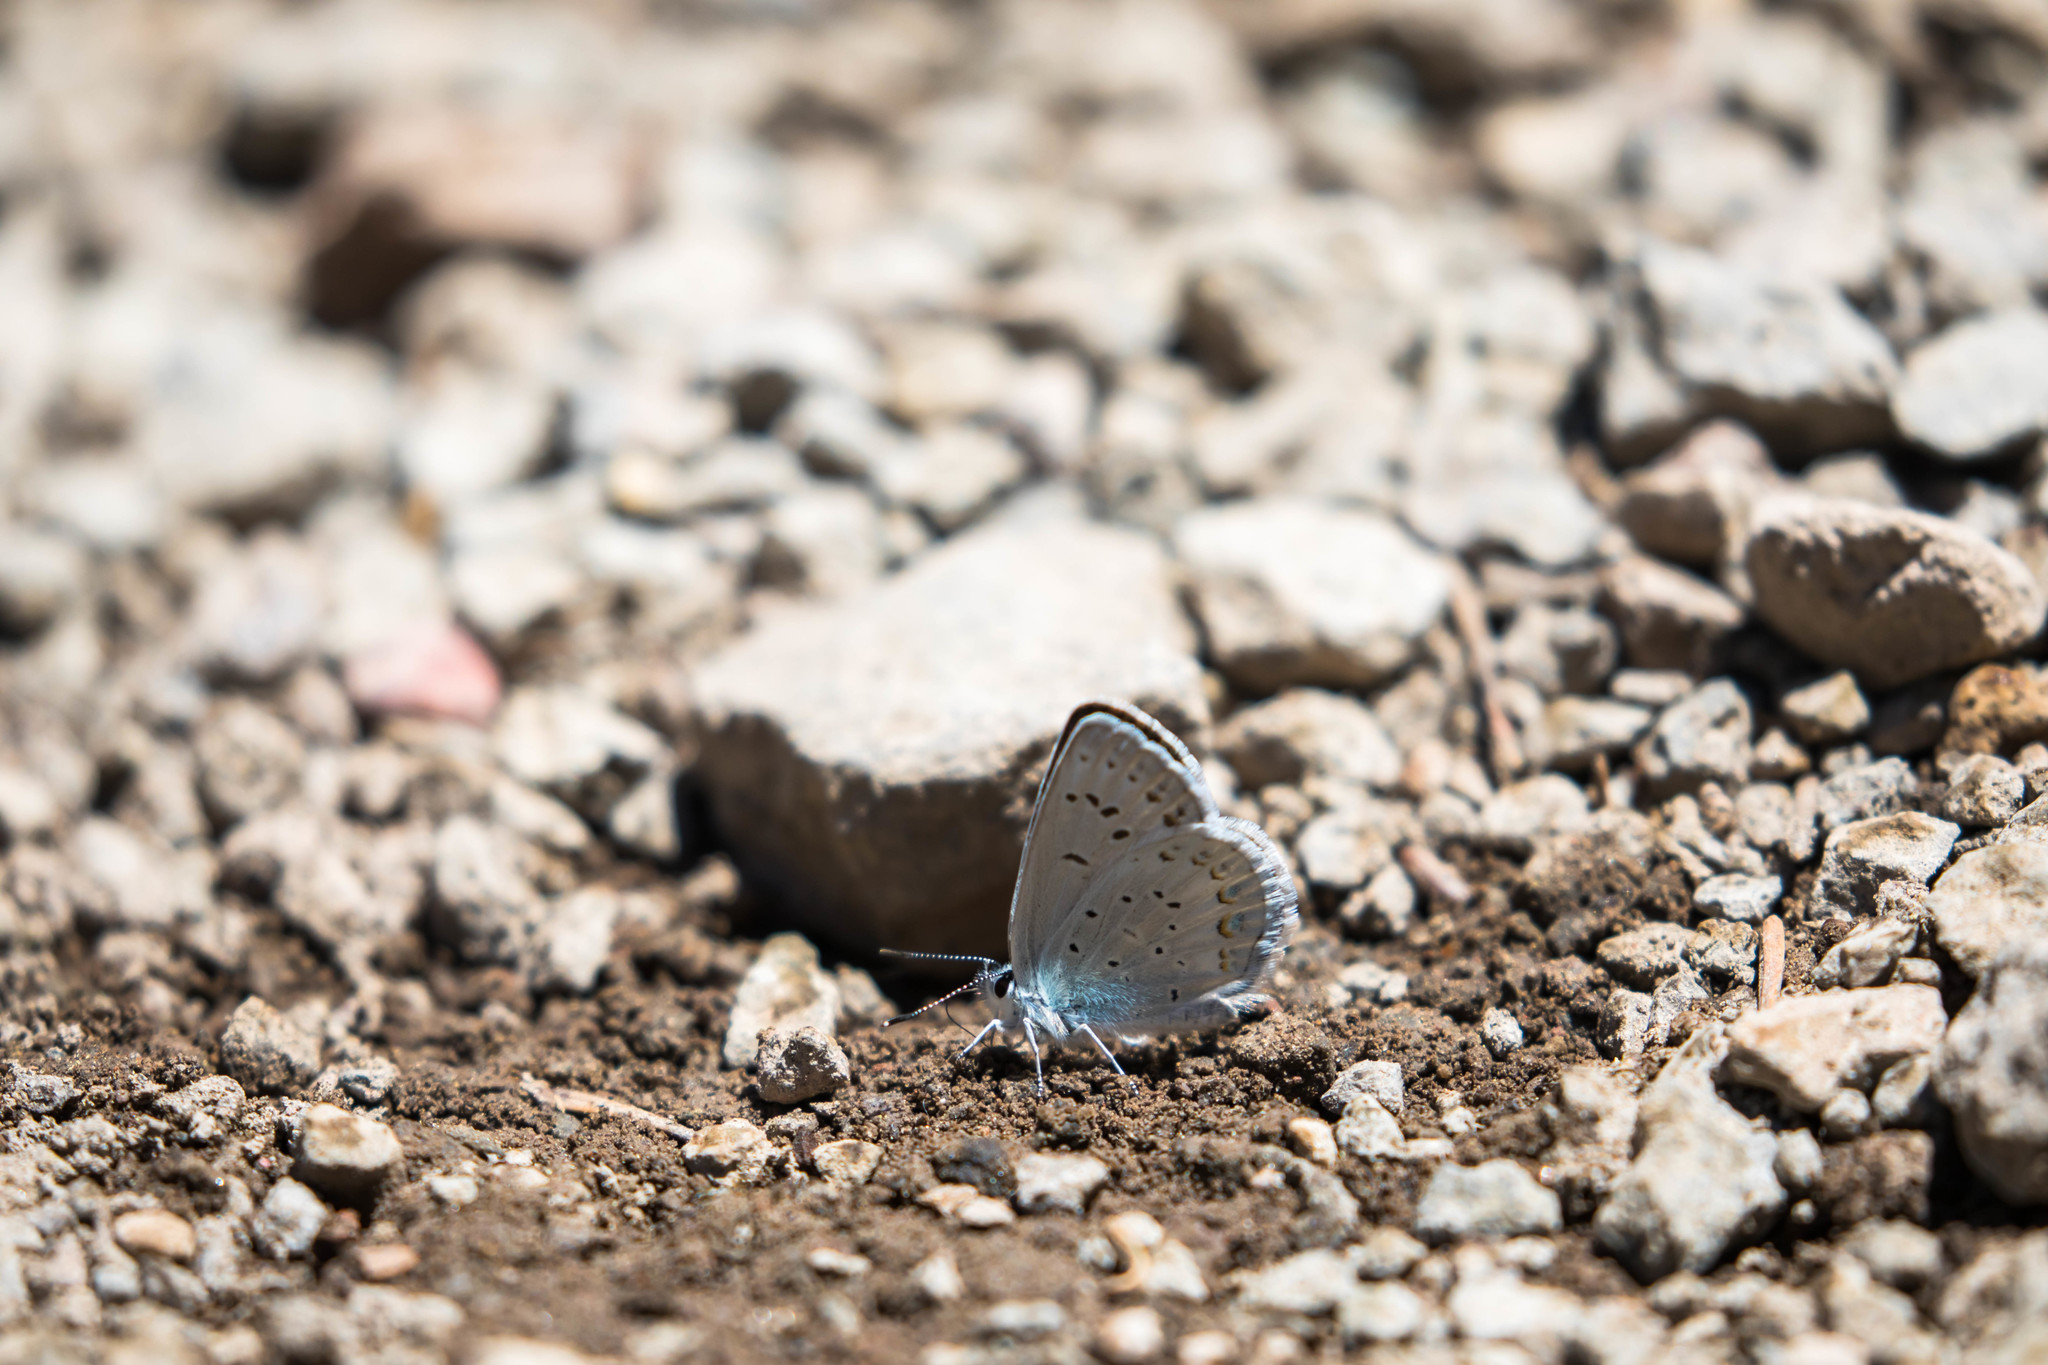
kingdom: Animalia
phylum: Arthropoda
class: Insecta
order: Lepidoptera
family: Lycaenidae
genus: Lycaeides
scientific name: Lycaeides anna
